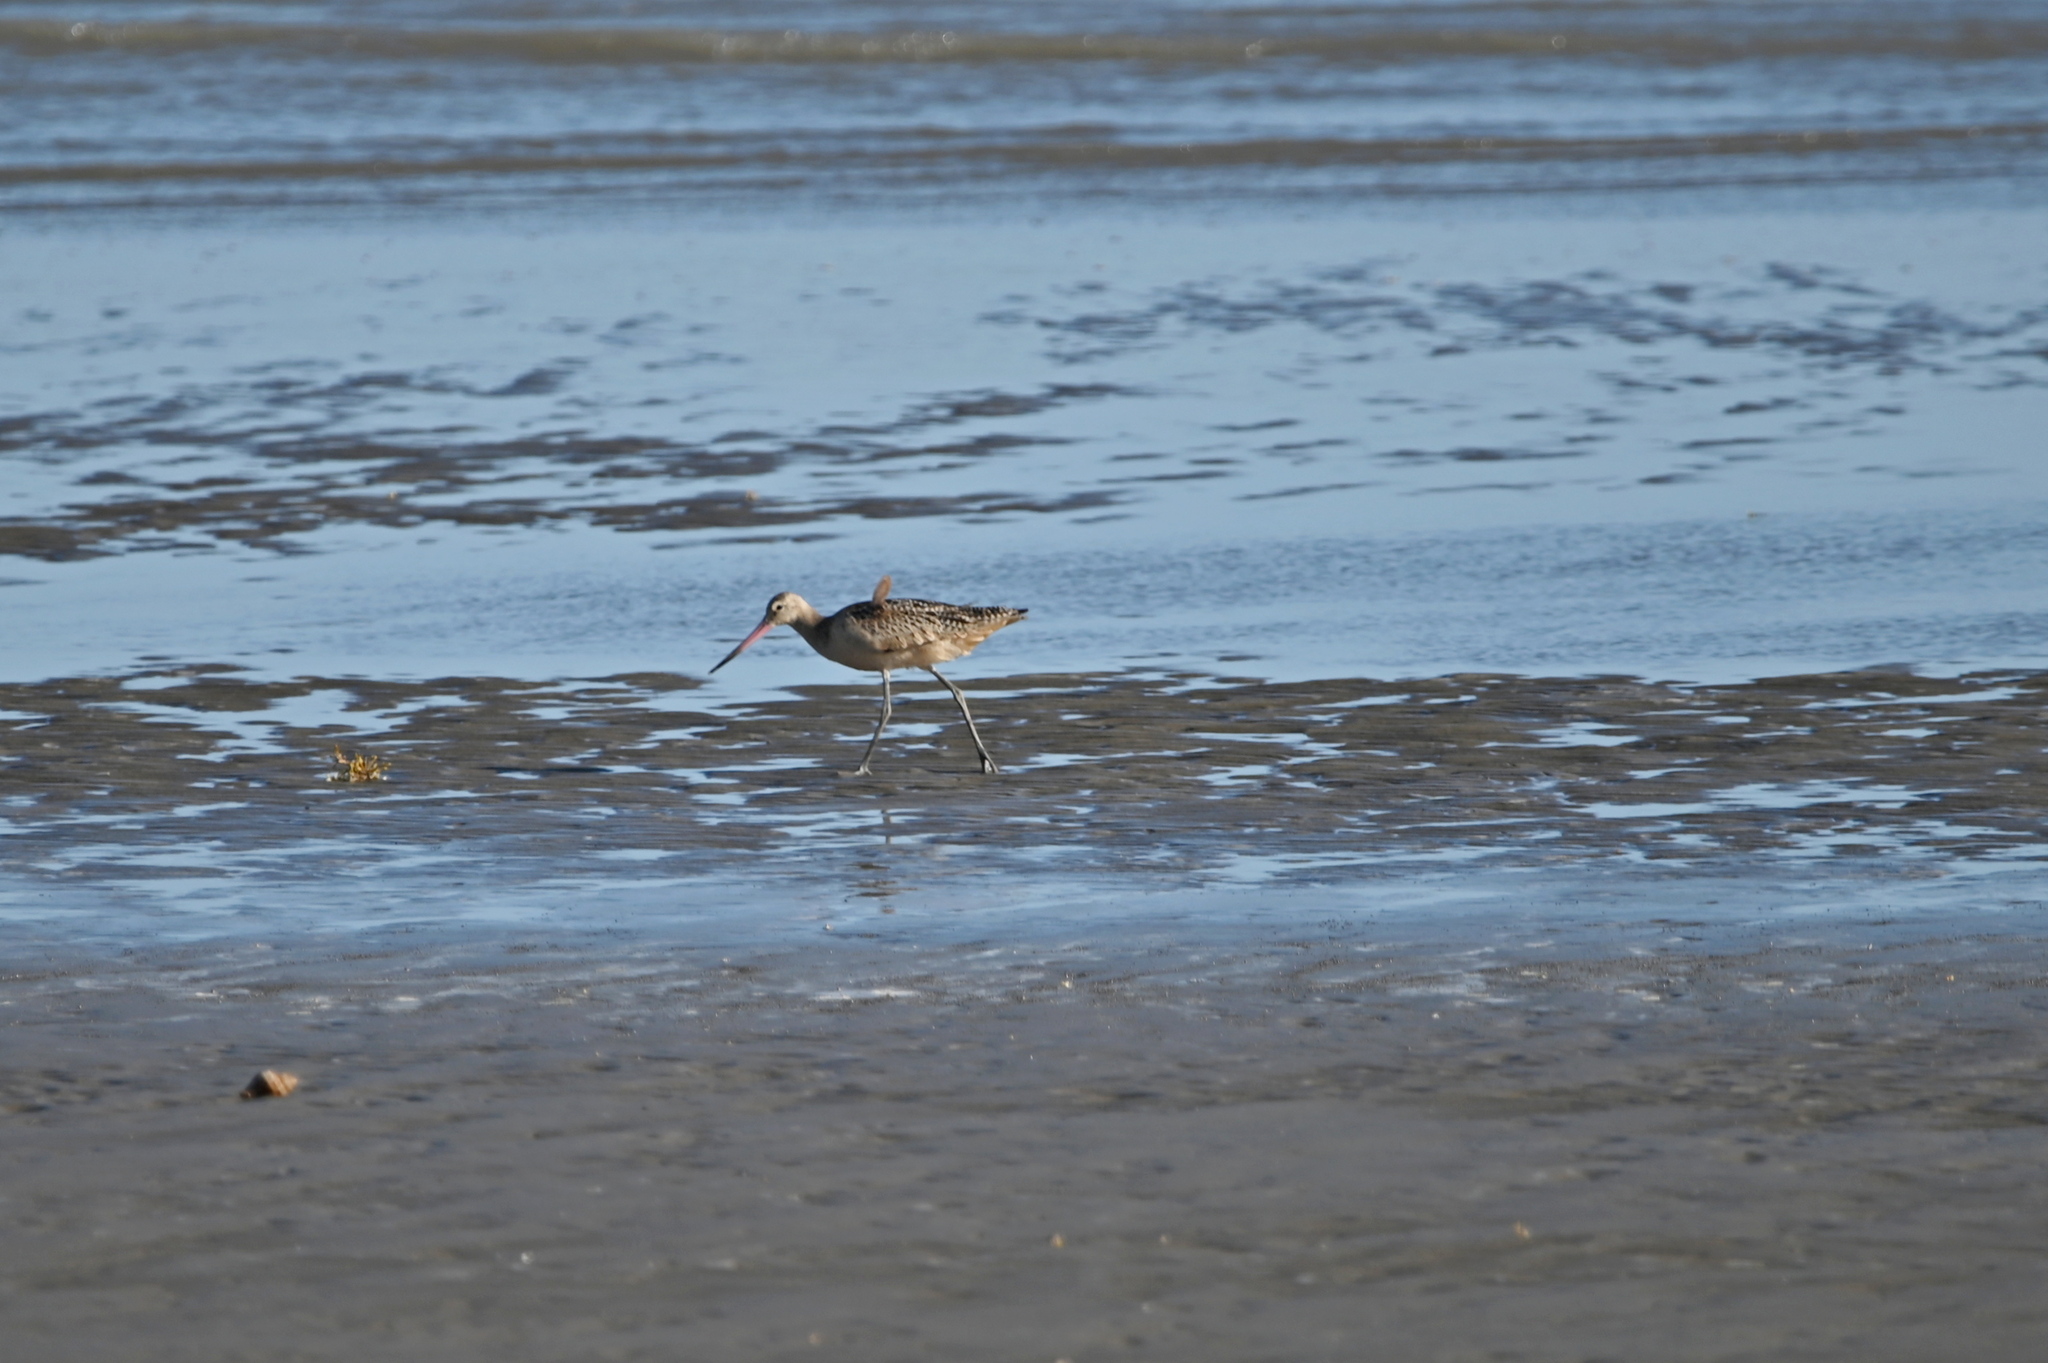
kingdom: Animalia
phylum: Chordata
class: Aves
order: Charadriiformes
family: Scolopacidae
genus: Limosa
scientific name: Limosa fedoa
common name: Marbled godwit
